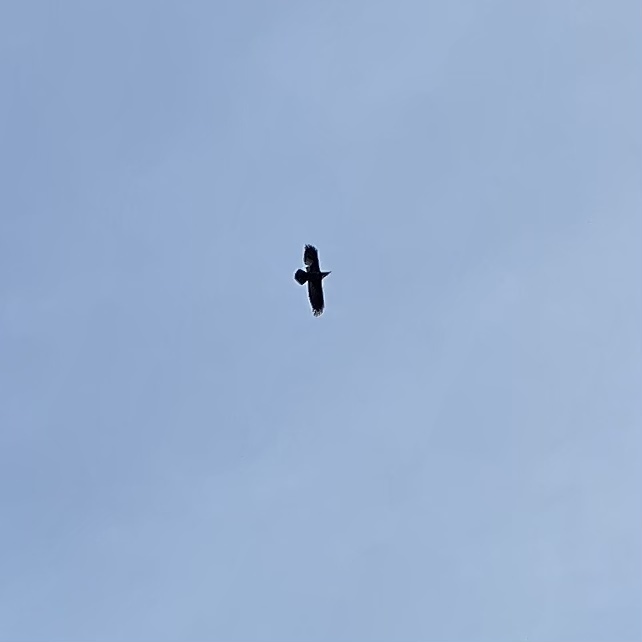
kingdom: Animalia
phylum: Chordata
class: Aves
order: Passeriformes
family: Corvidae
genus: Corvus
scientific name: Corvus corax
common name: Common raven
